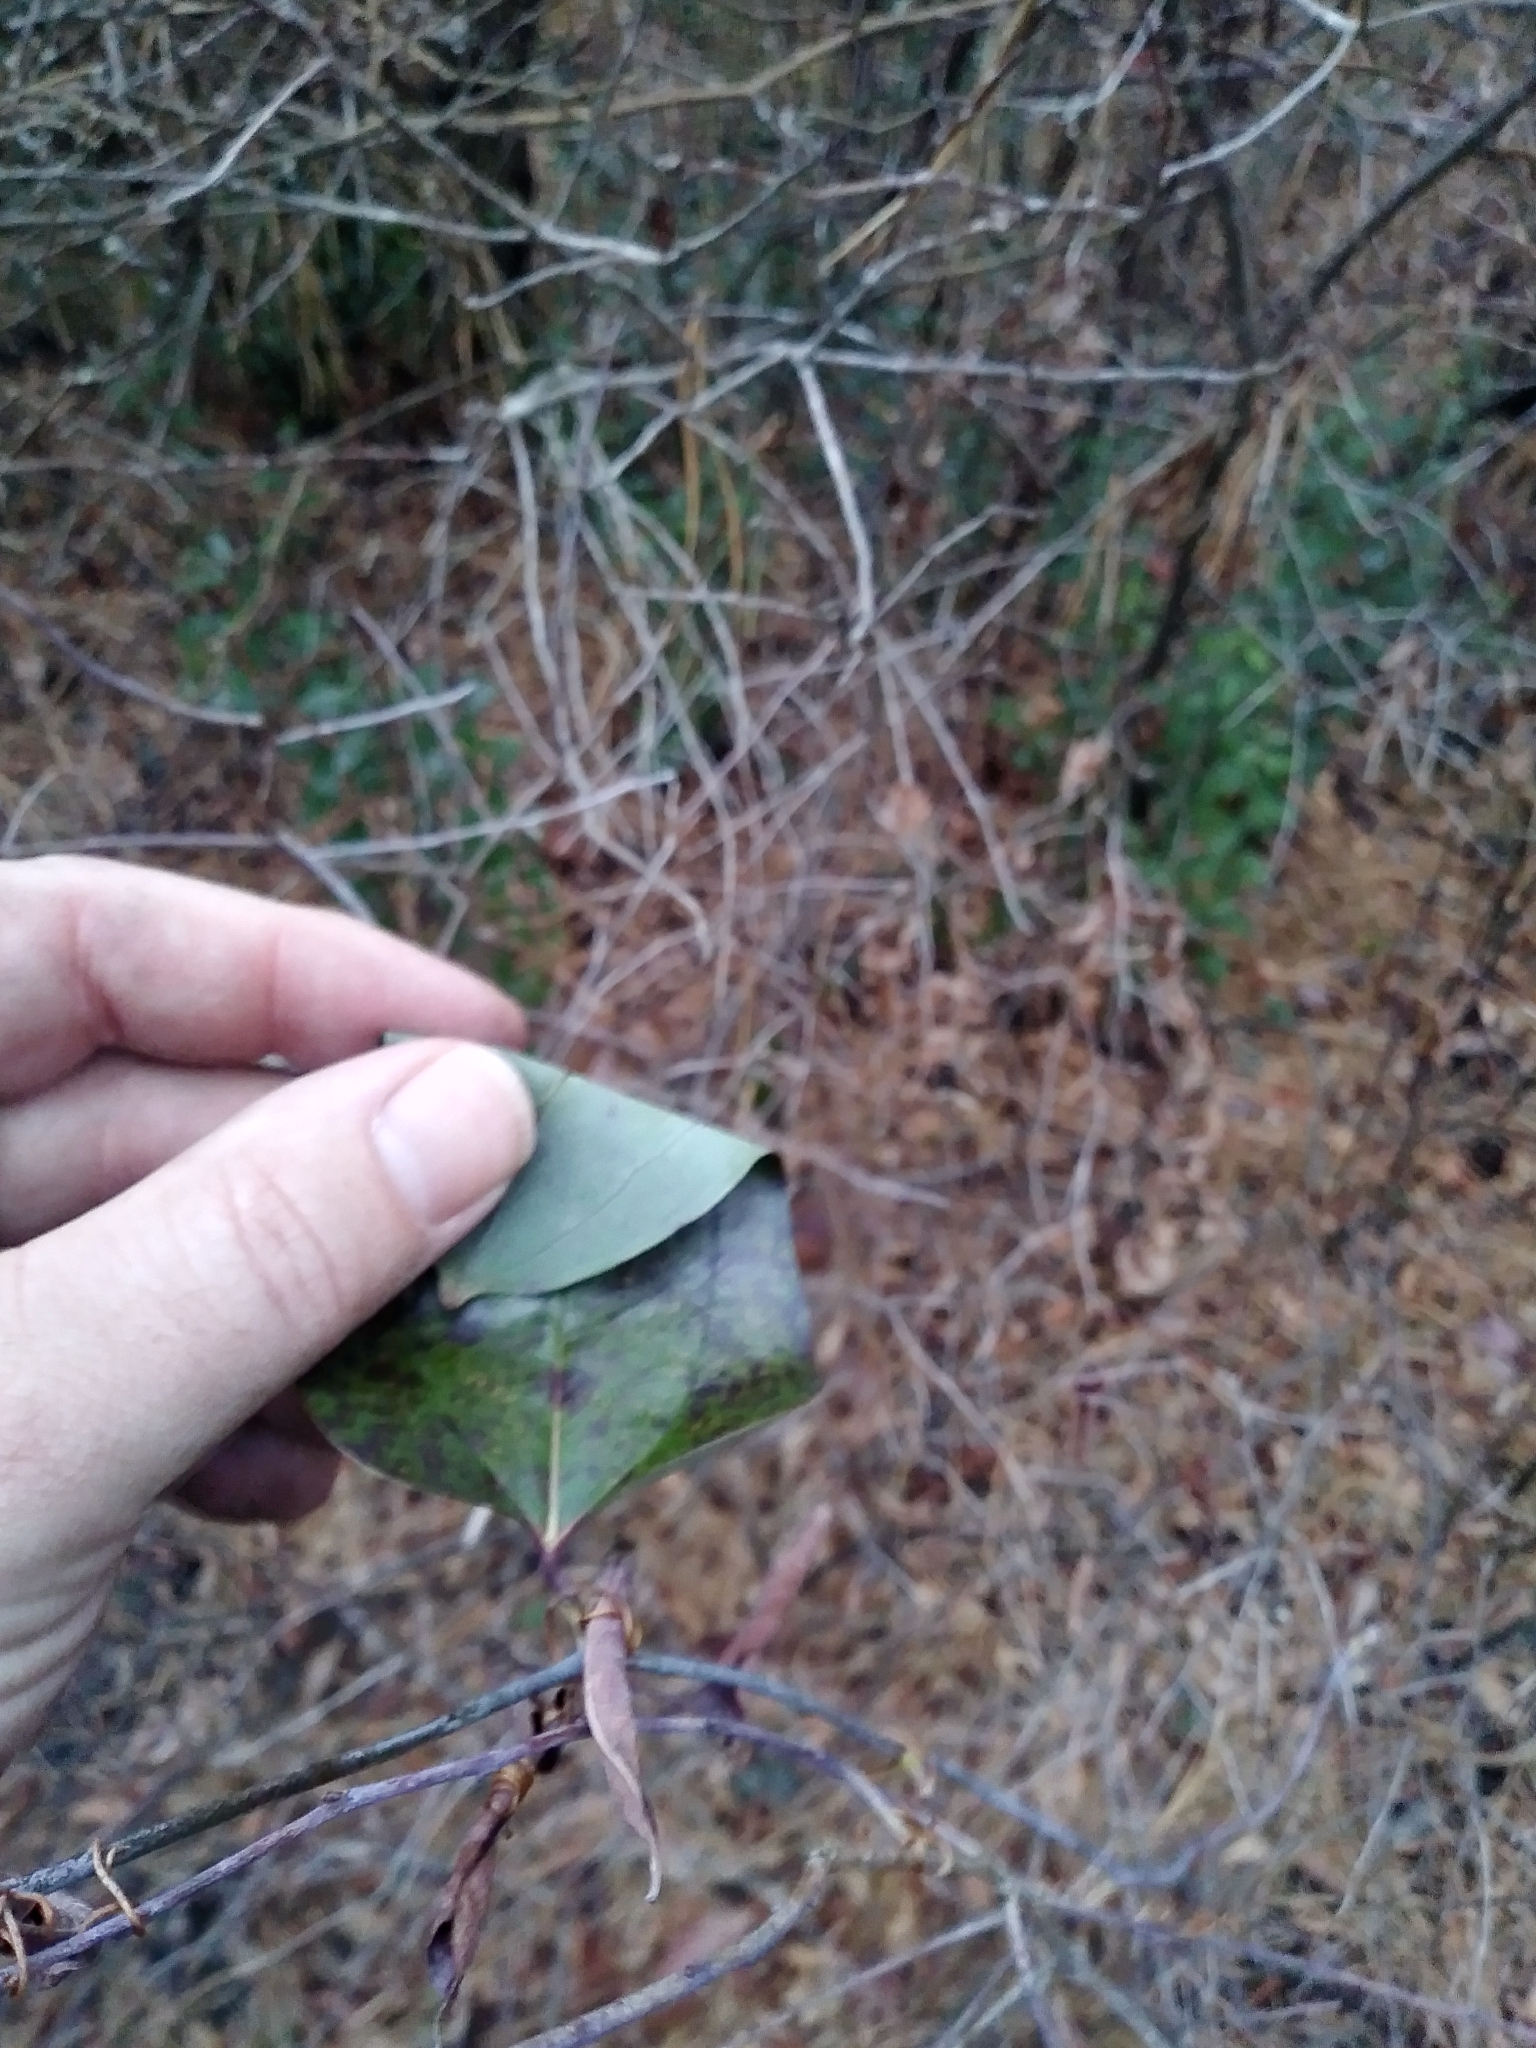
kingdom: Plantae
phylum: Tracheophyta
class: Liliopsida
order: Liliales
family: Smilacaceae
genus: Smilax
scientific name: Smilax glauca
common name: Cat greenbrier
